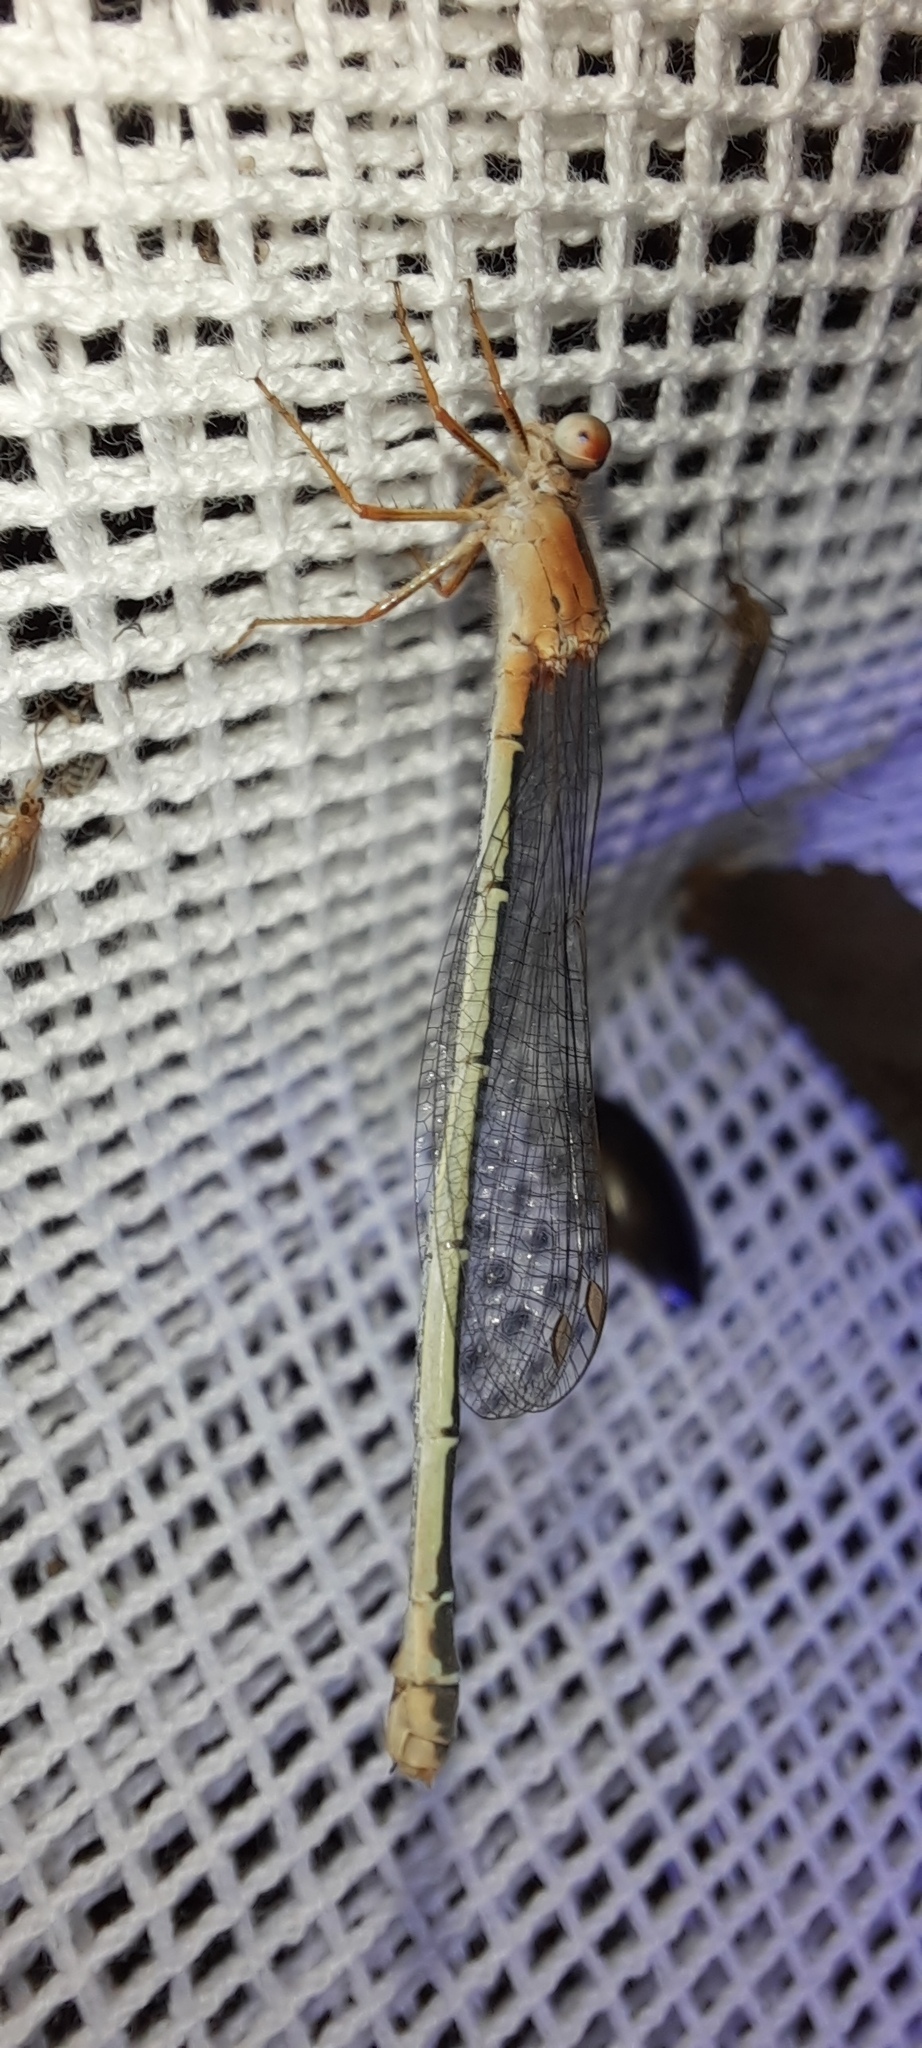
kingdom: Animalia
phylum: Arthropoda
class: Insecta
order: Odonata
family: Coenagrionidae
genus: Xanthagrion
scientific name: Xanthagrion erythroneurum
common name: Red and blue damsel
